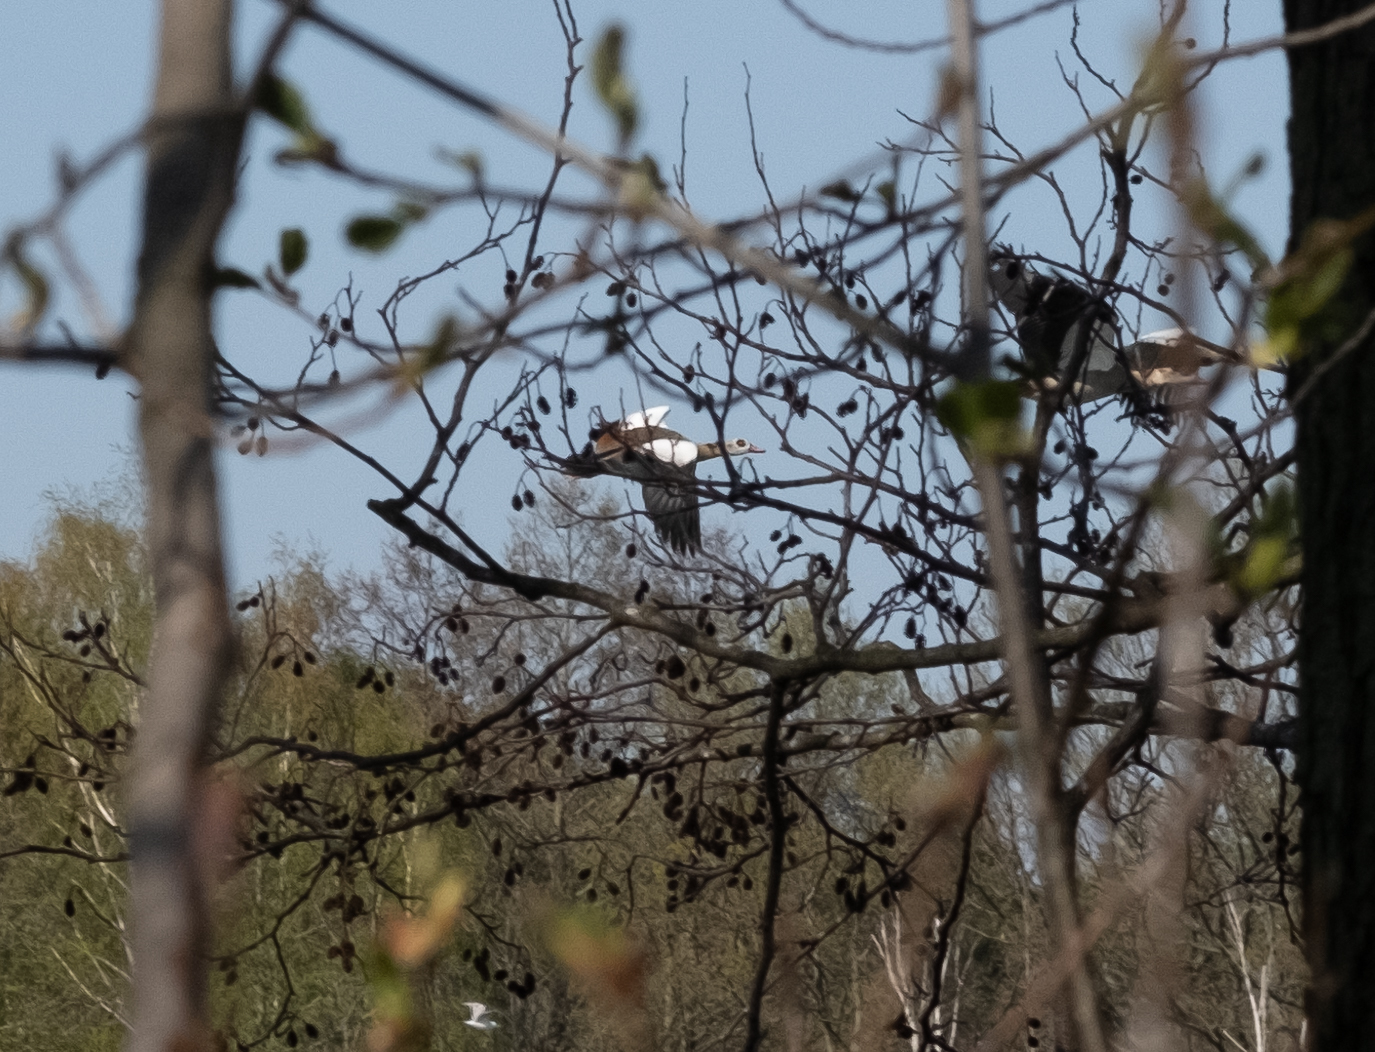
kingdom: Animalia
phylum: Chordata
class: Aves
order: Anseriformes
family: Anatidae
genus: Alopochen
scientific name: Alopochen aegyptiaca
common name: Egyptian goose
